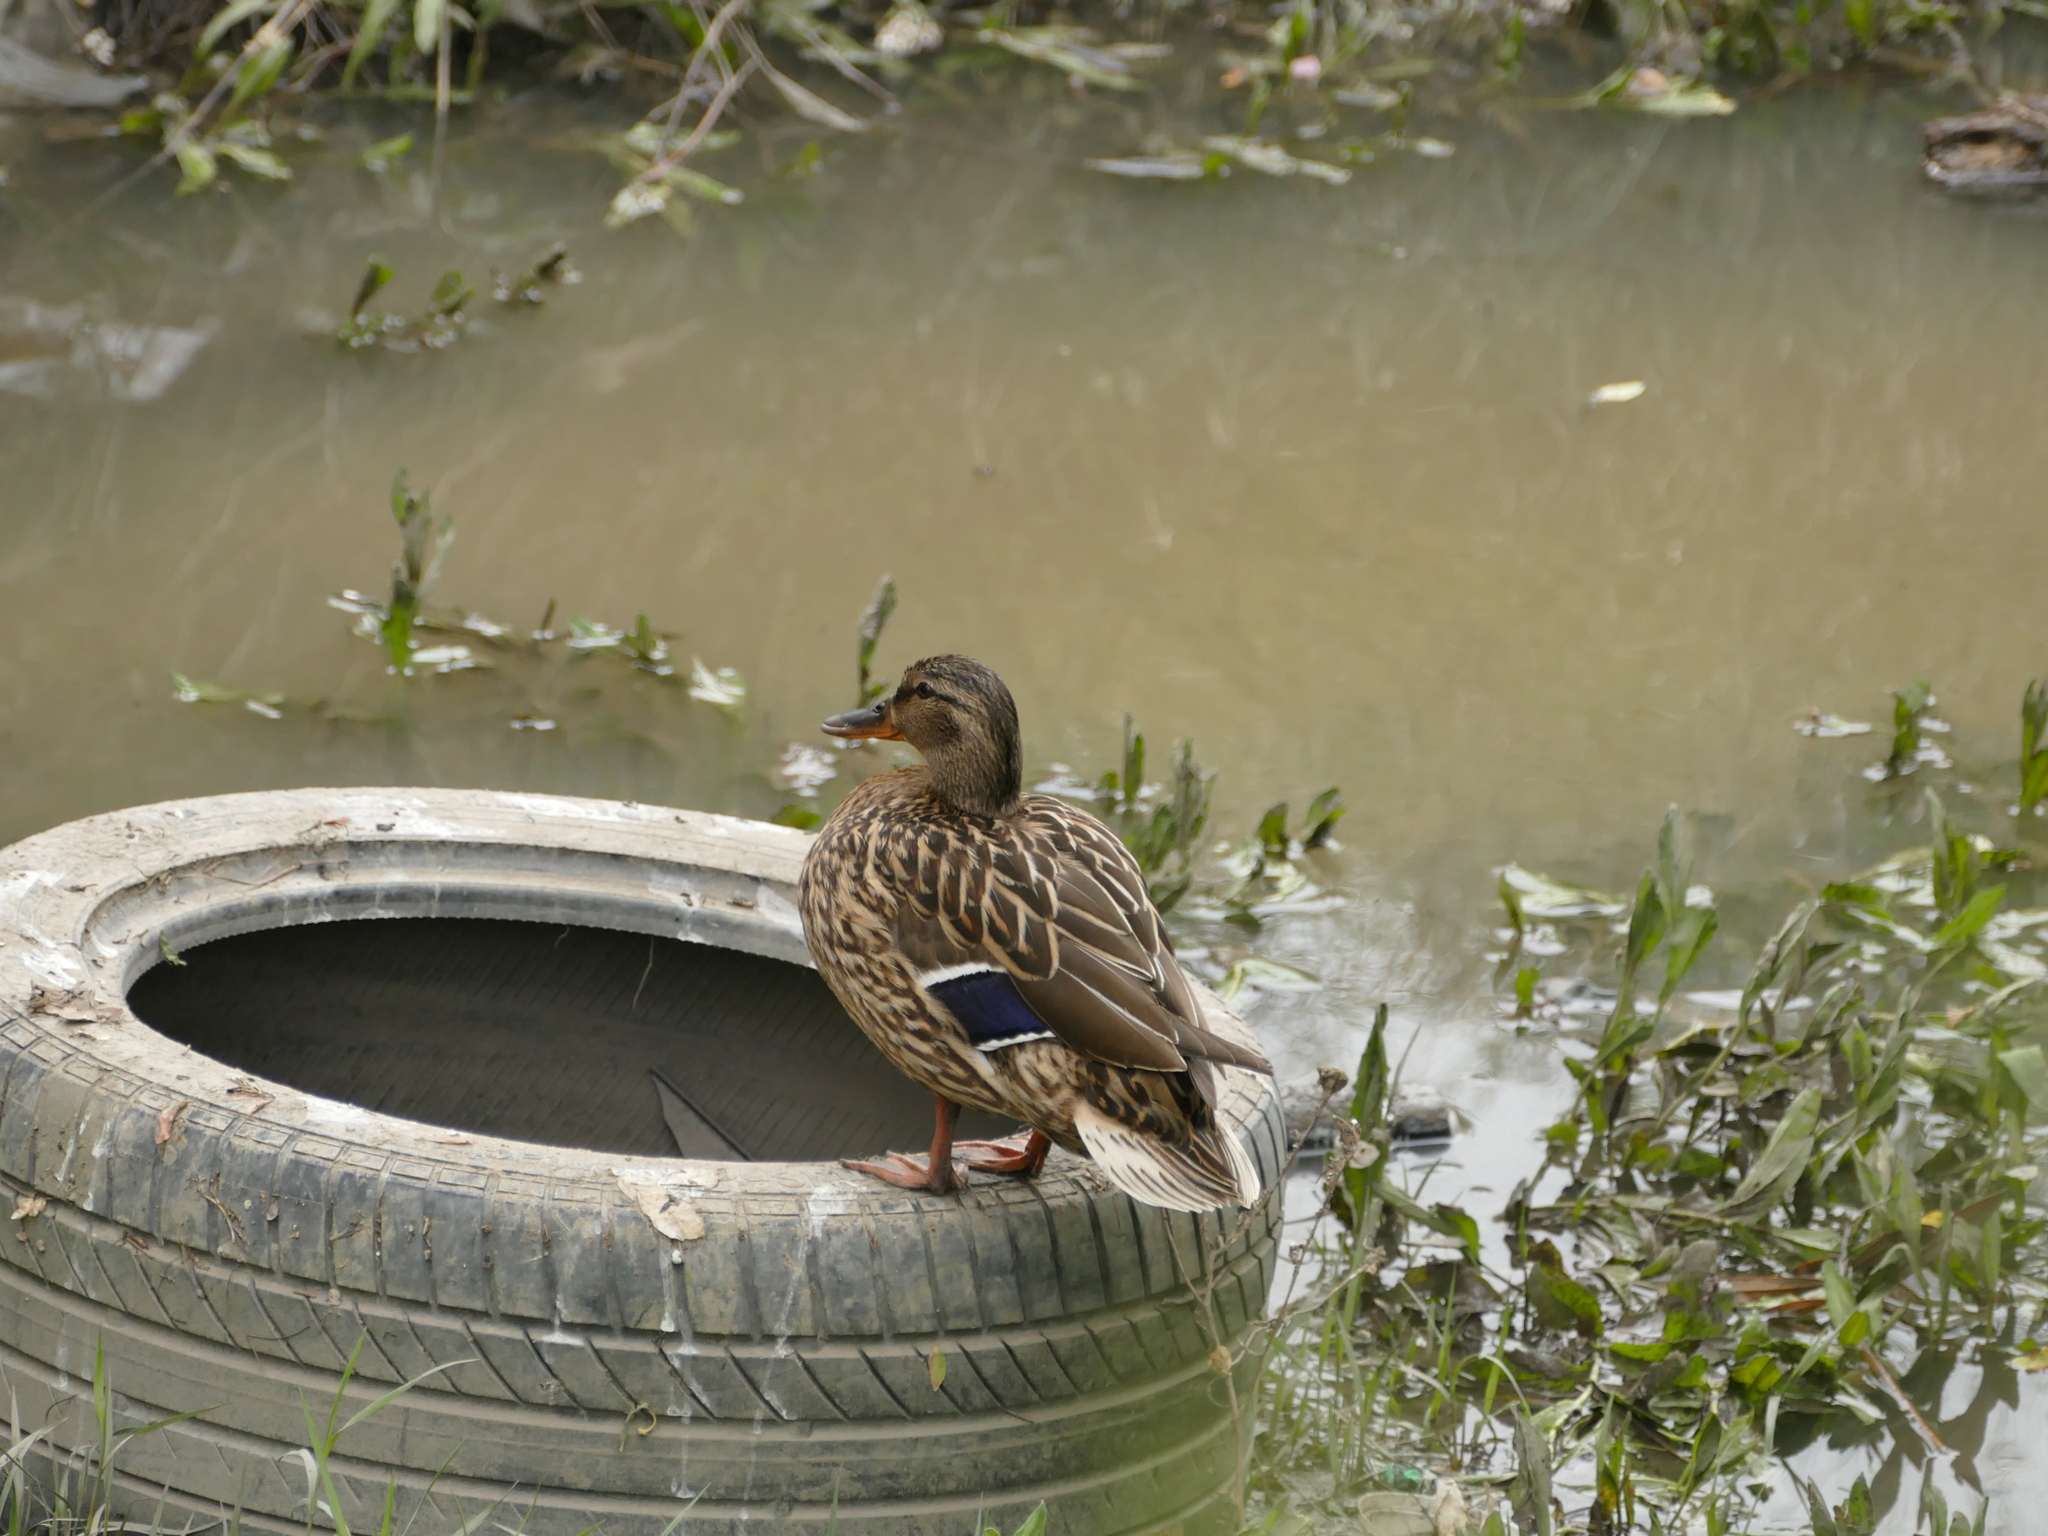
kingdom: Animalia
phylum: Chordata
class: Aves
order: Anseriformes
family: Anatidae
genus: Anas
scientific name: Anas platyrhynchos
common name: Mallard
